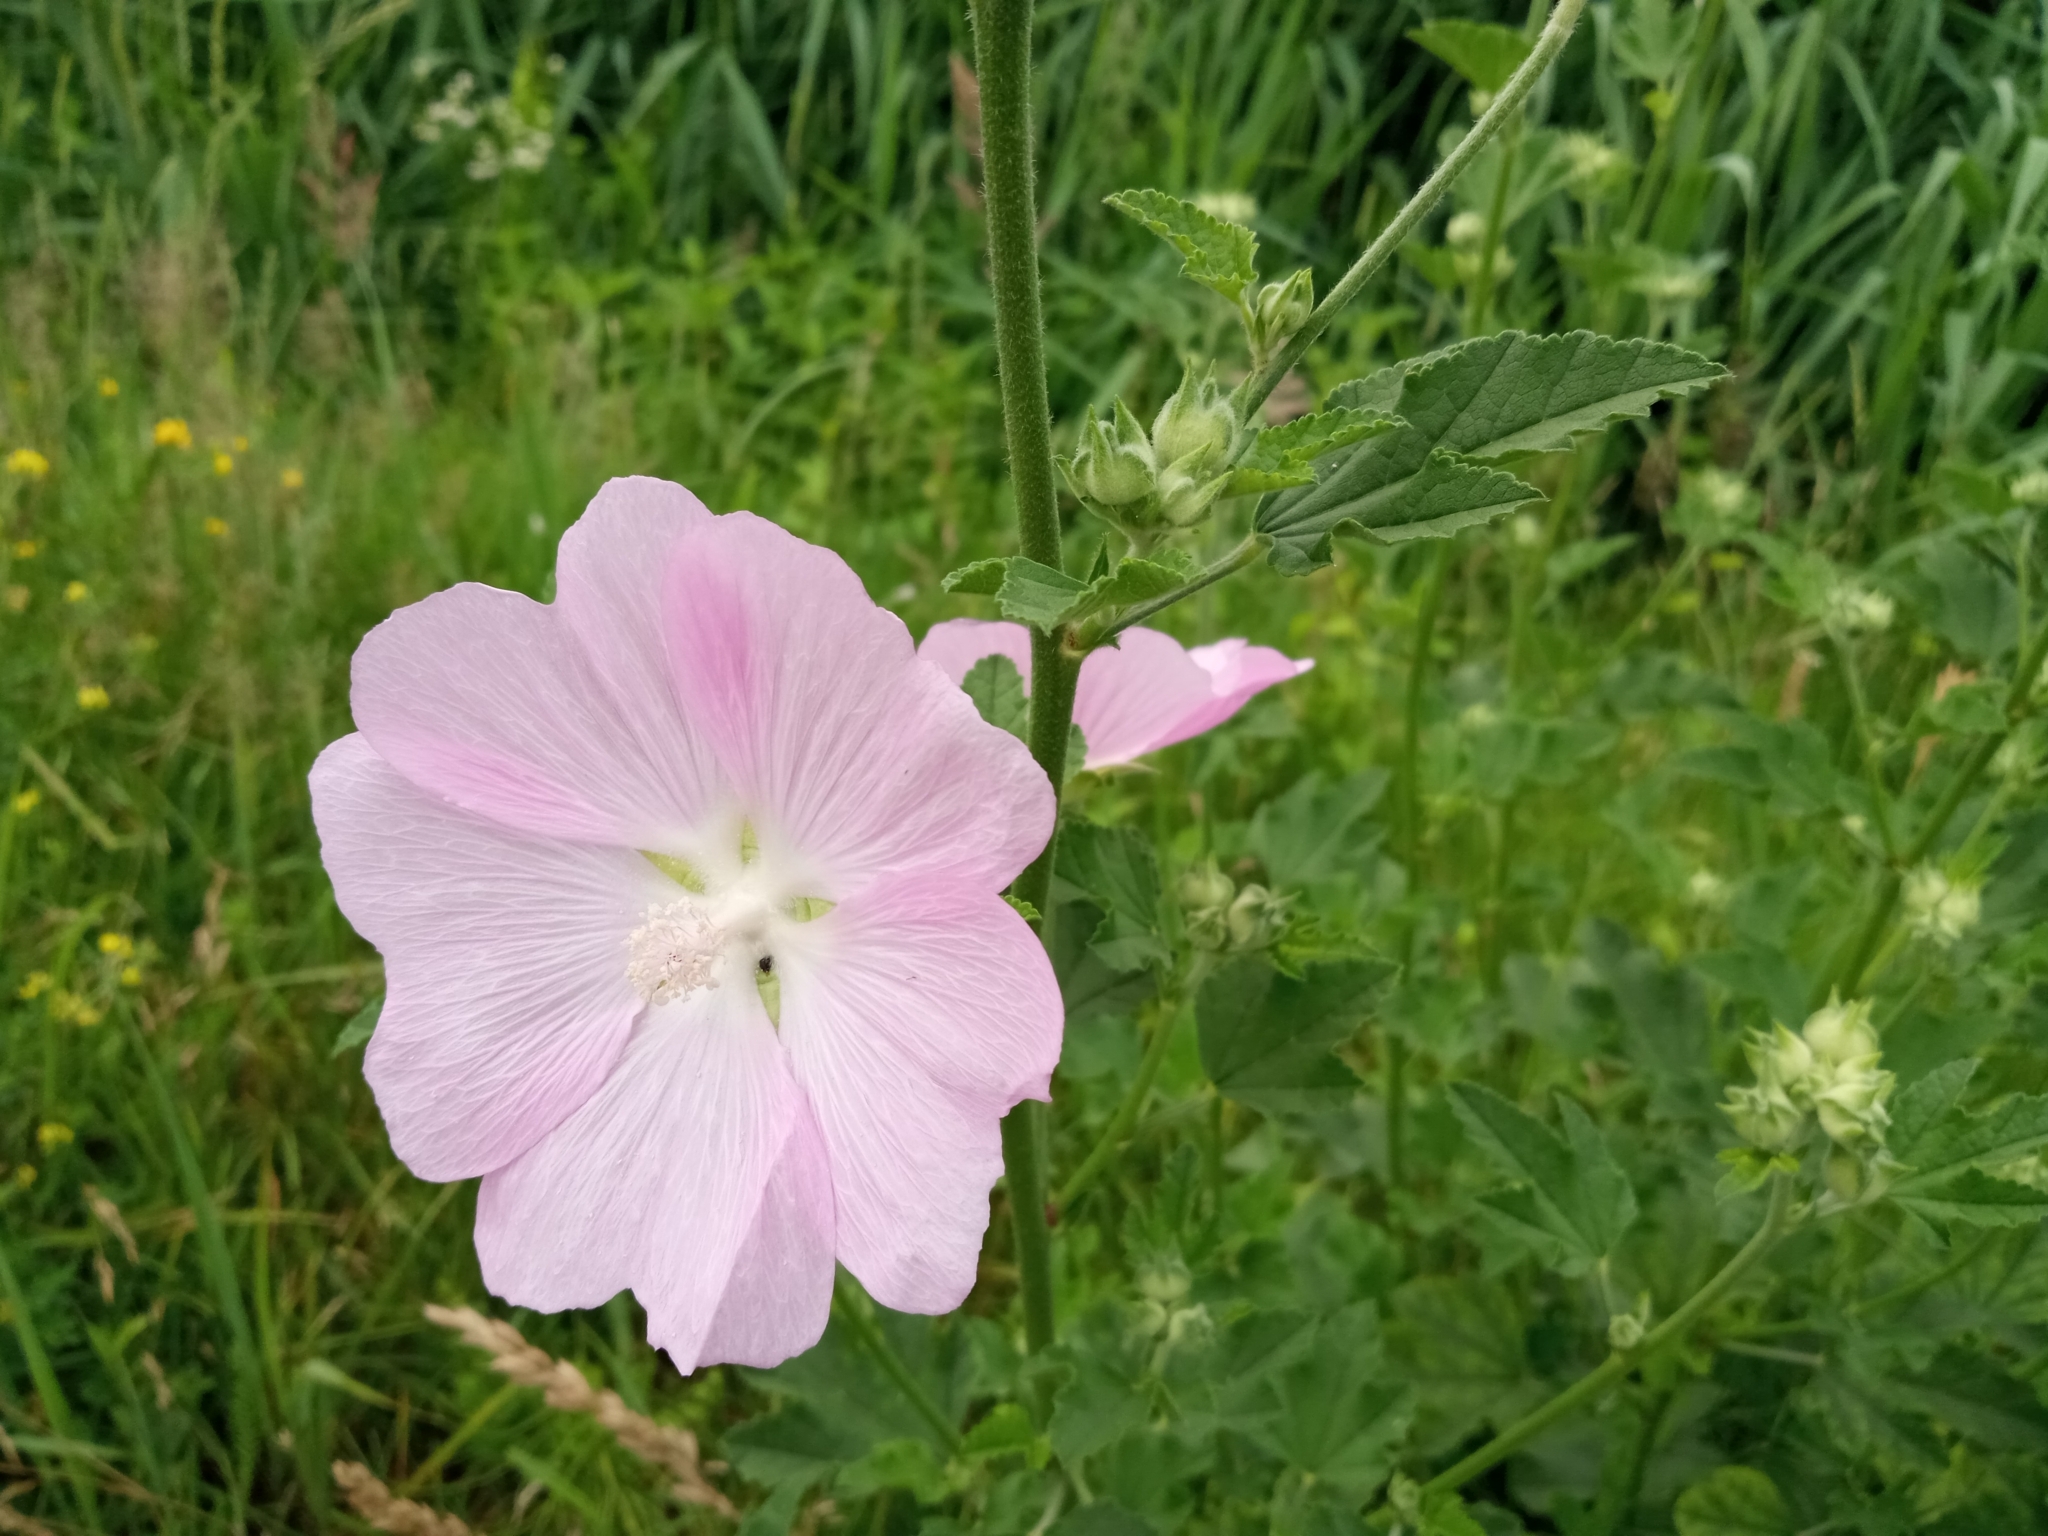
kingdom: Plantae
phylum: Tracheophyta
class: Magnoliopsida
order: Malvales
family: Malvaceae
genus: Malva
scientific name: Malva thuringiaca
